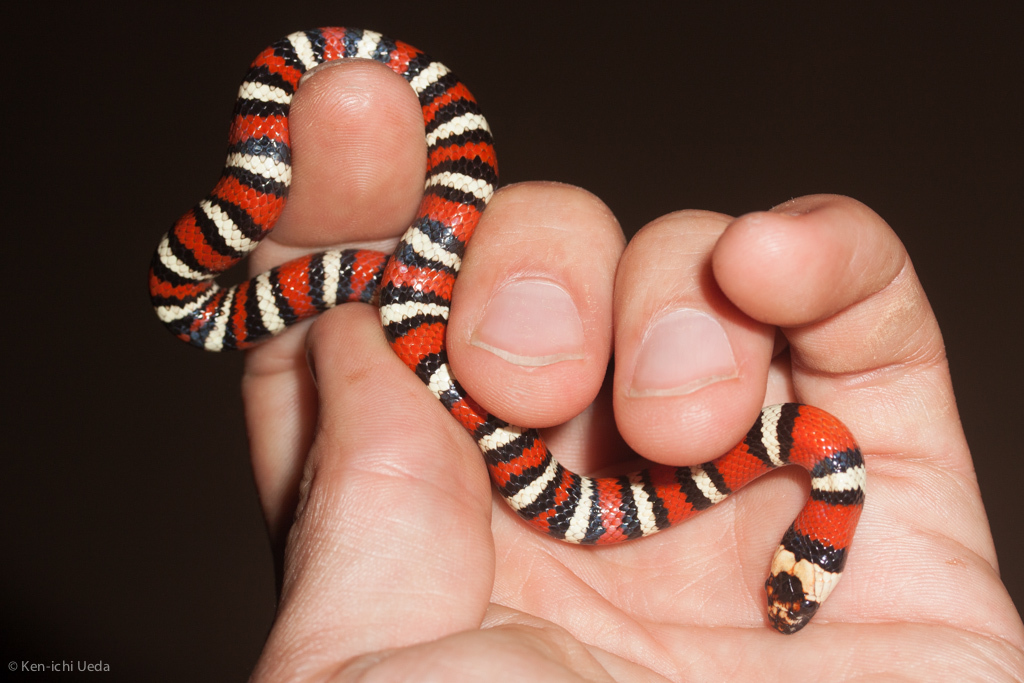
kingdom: Animalia
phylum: Chordata
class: Squamata
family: Colubridae
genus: Lampropeltis
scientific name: Lampropeltis zonata
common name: California mountain kingsnake
